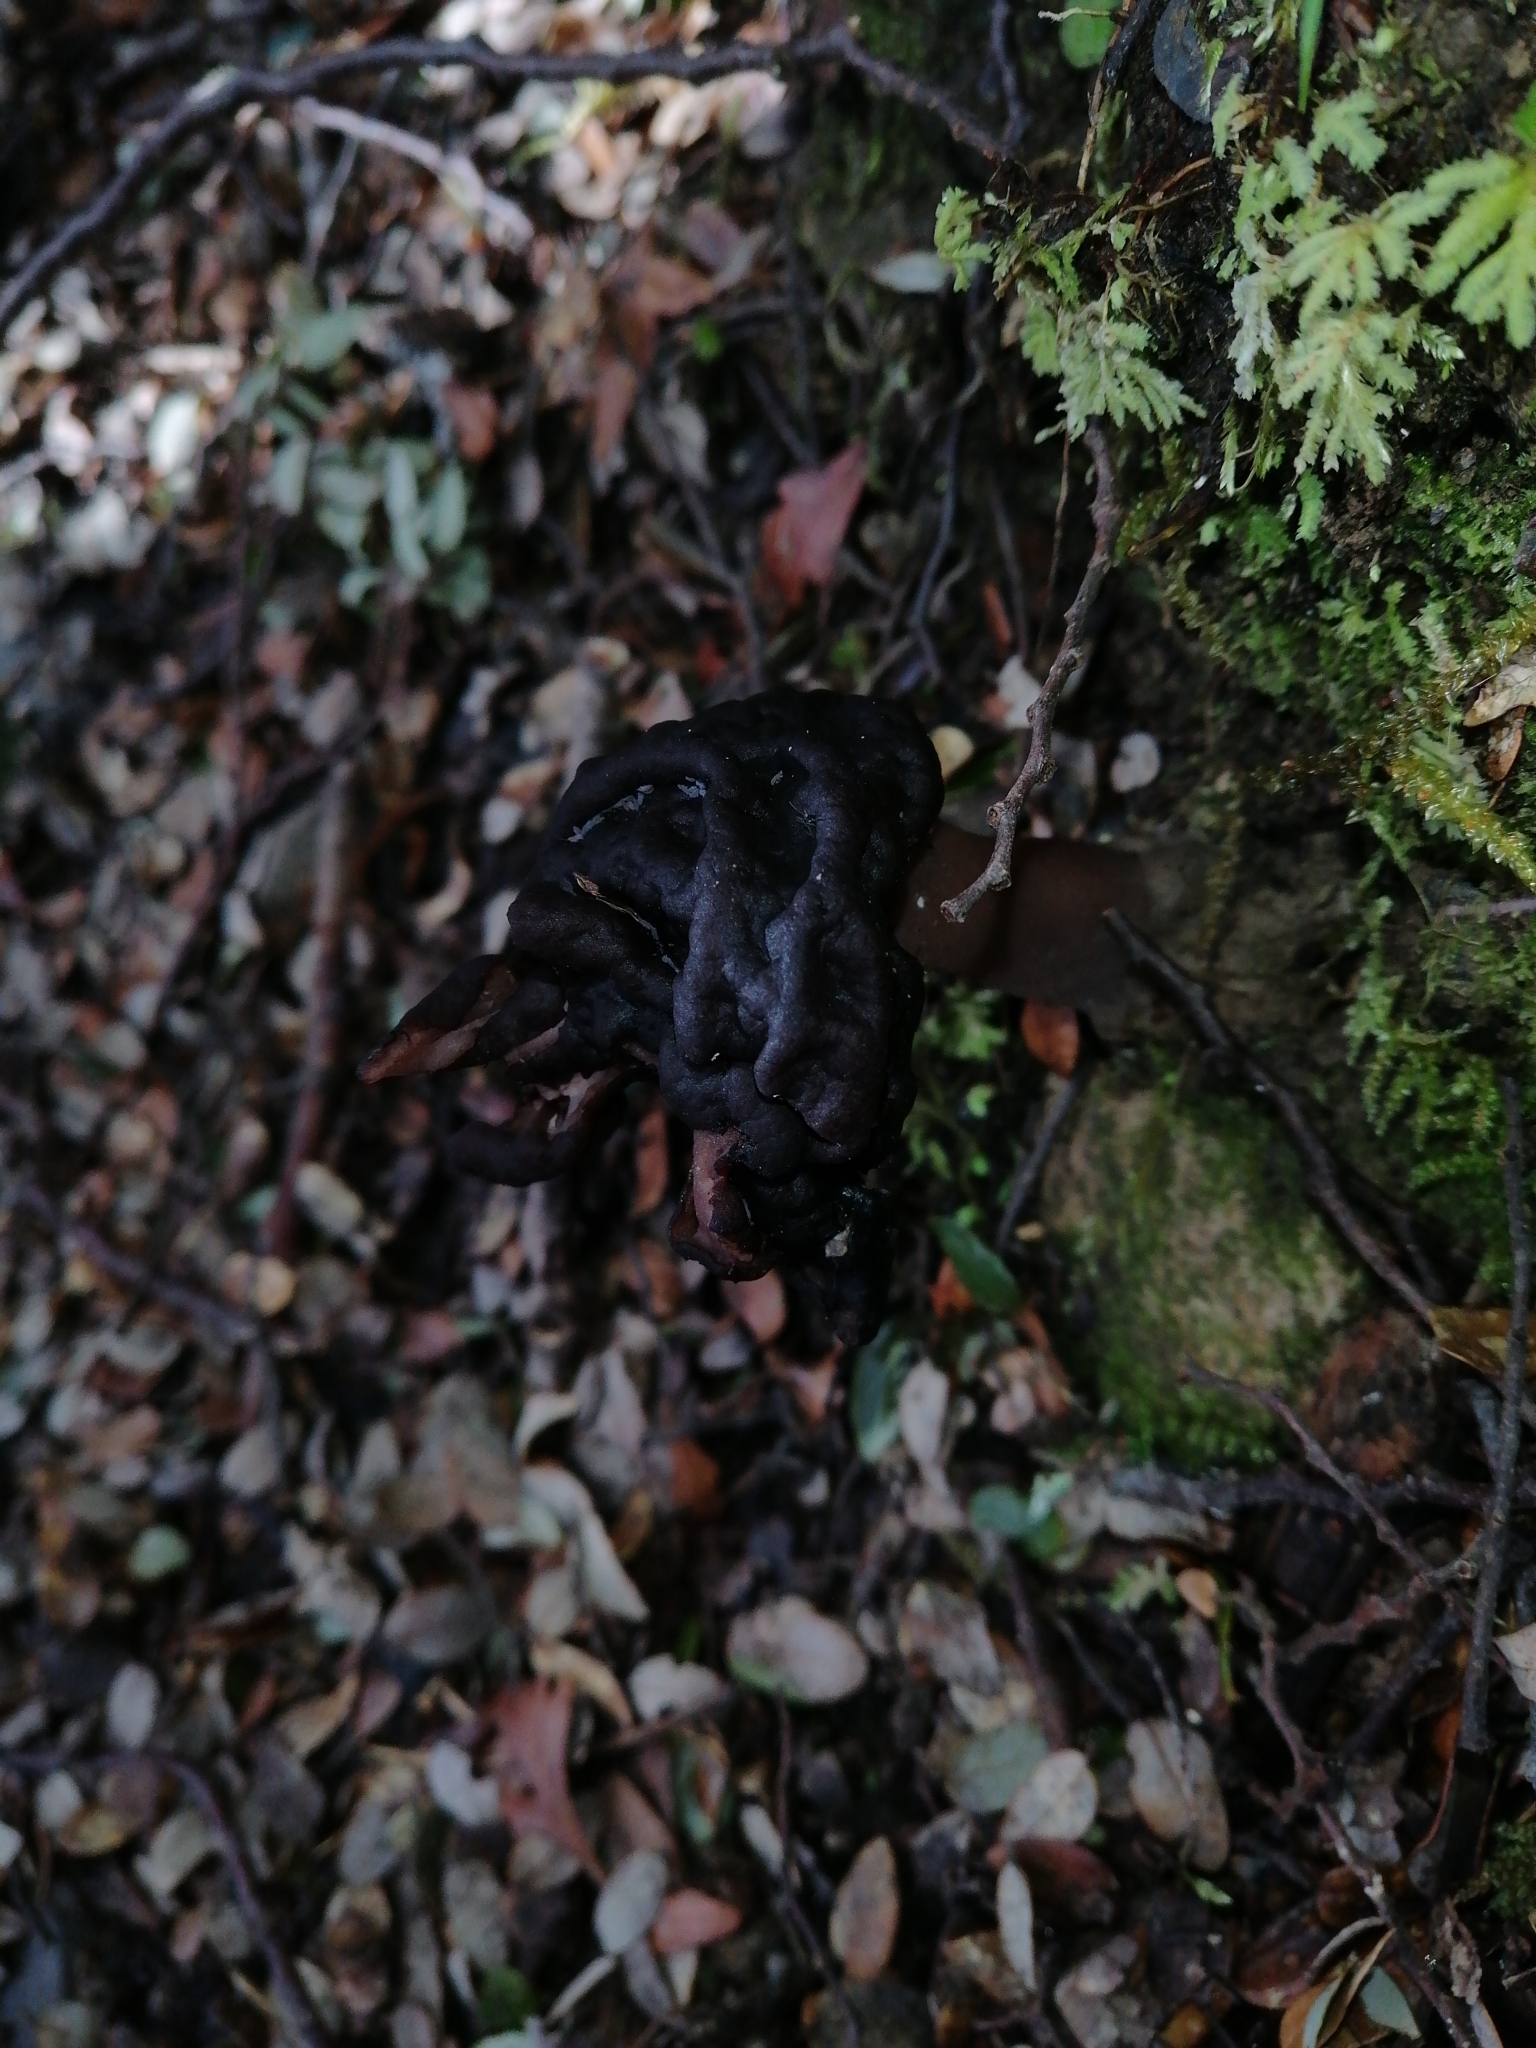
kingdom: Fungi
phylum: Ascomycota
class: Pezizomycetes
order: Pezizales
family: Discinaceae
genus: Gyromitra
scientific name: Gyromitra tasmanica
